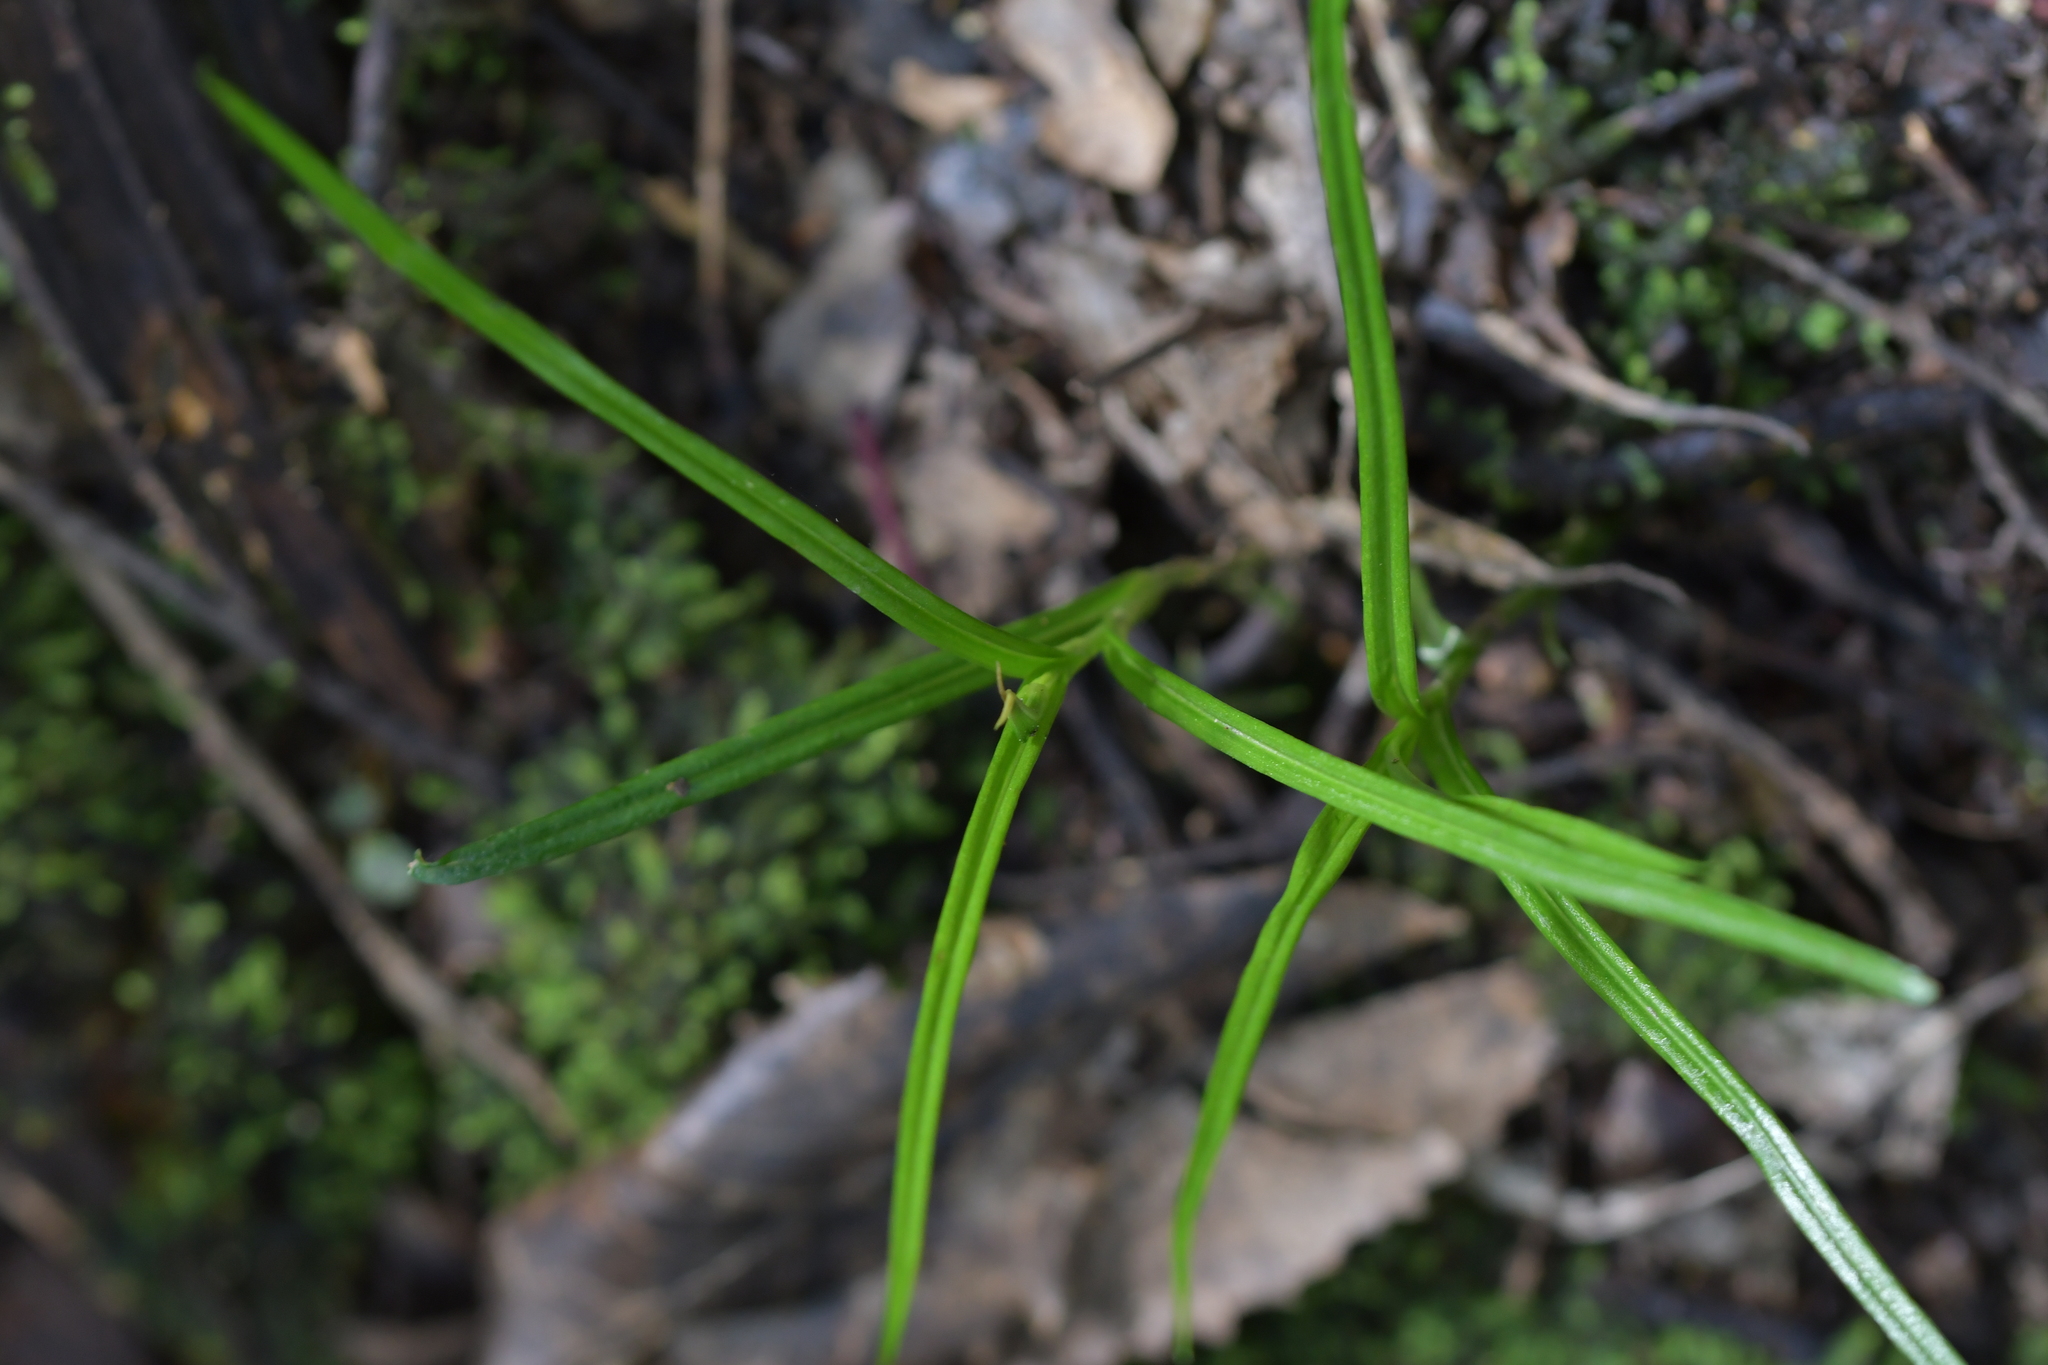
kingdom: Plantae
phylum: Tracheophyta
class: Liliopsida
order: Asparagales
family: Orchidaceae
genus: Pterostylis
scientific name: Pterostylis graminea
